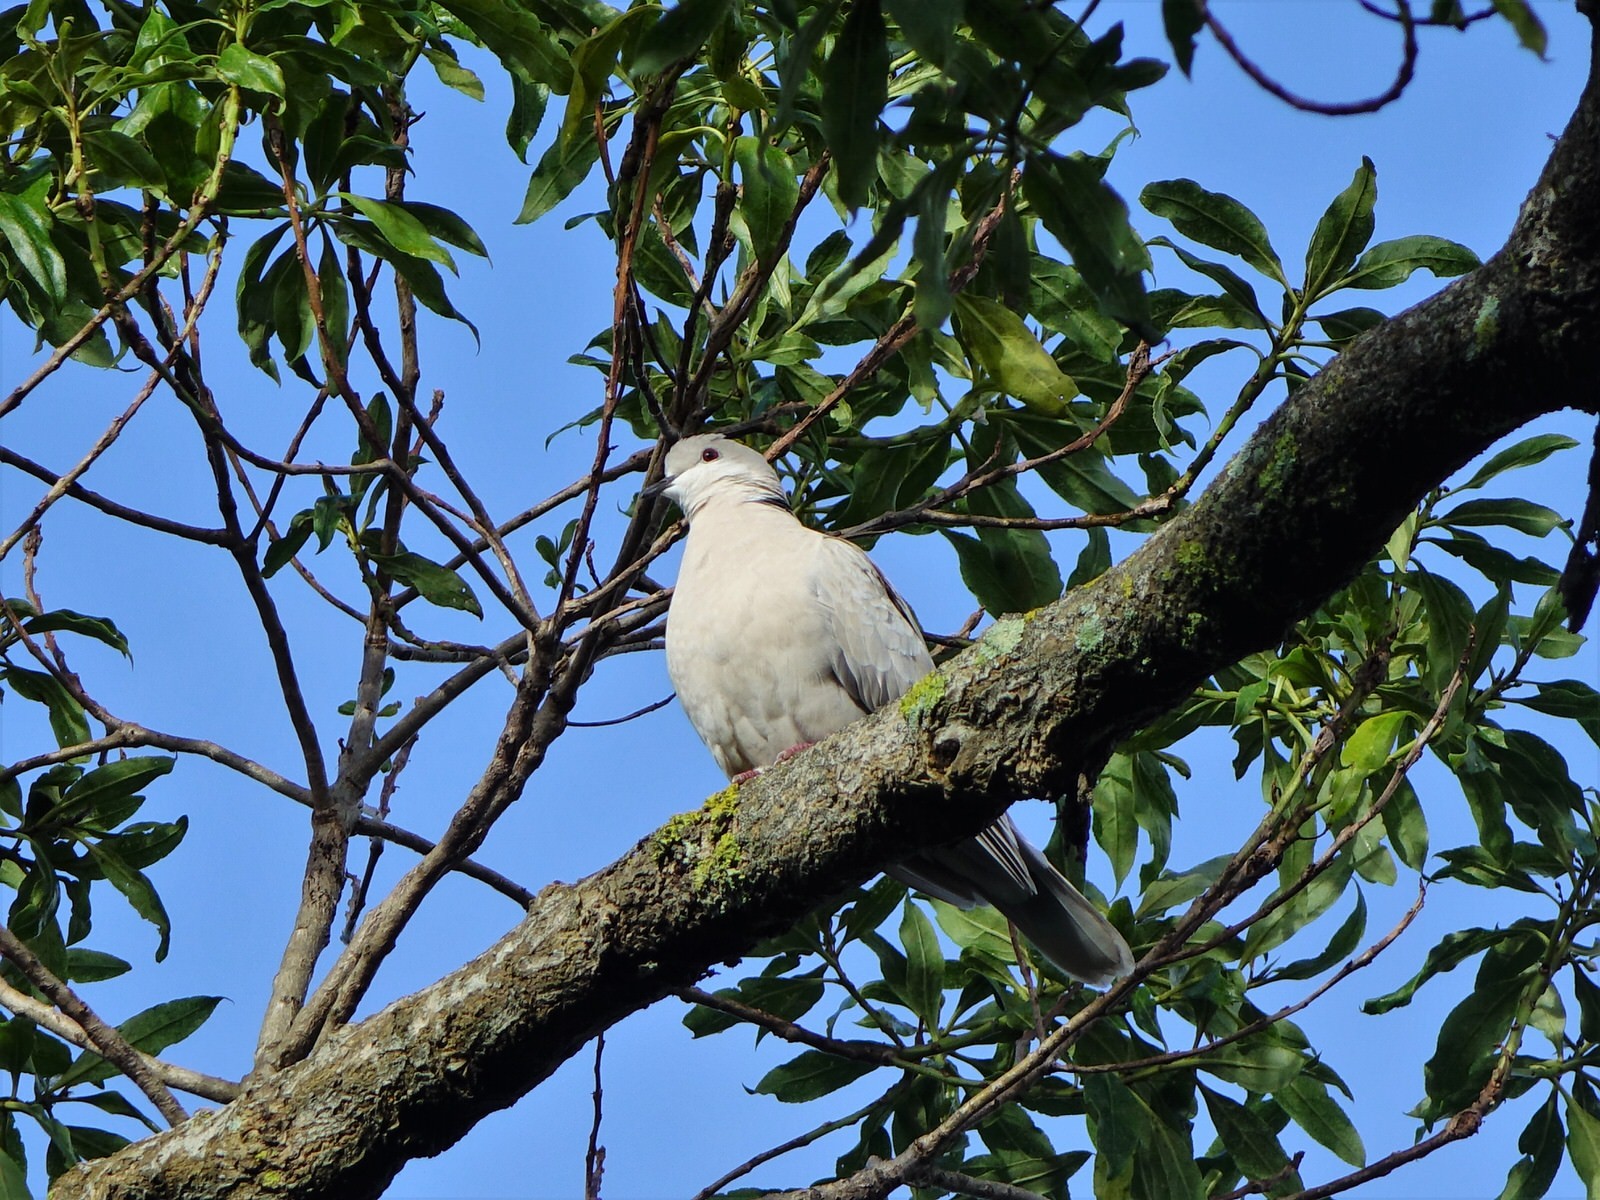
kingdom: Animalia
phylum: Chordata
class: Aves
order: Columbiformes
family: Columbidae
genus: Streptopelia
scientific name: Streptopelia roseogrisea
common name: African collared dove
